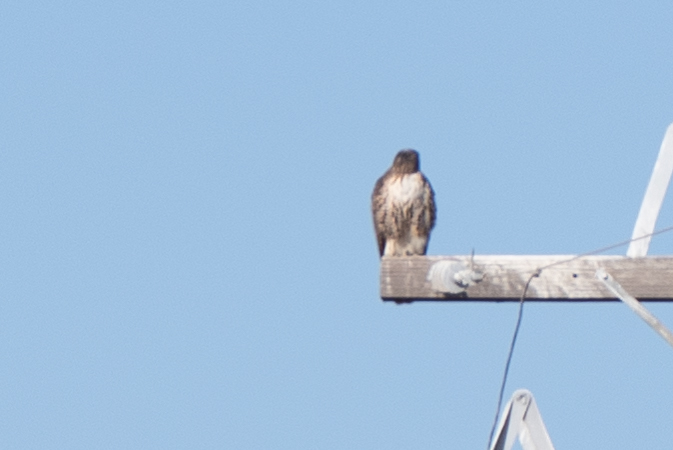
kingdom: Animalia
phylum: Chordata
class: Aves
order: Accipitriformes
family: Accipitridae
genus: Buteo
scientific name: Buteo jamaicensis
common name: Red-tailed hawk
